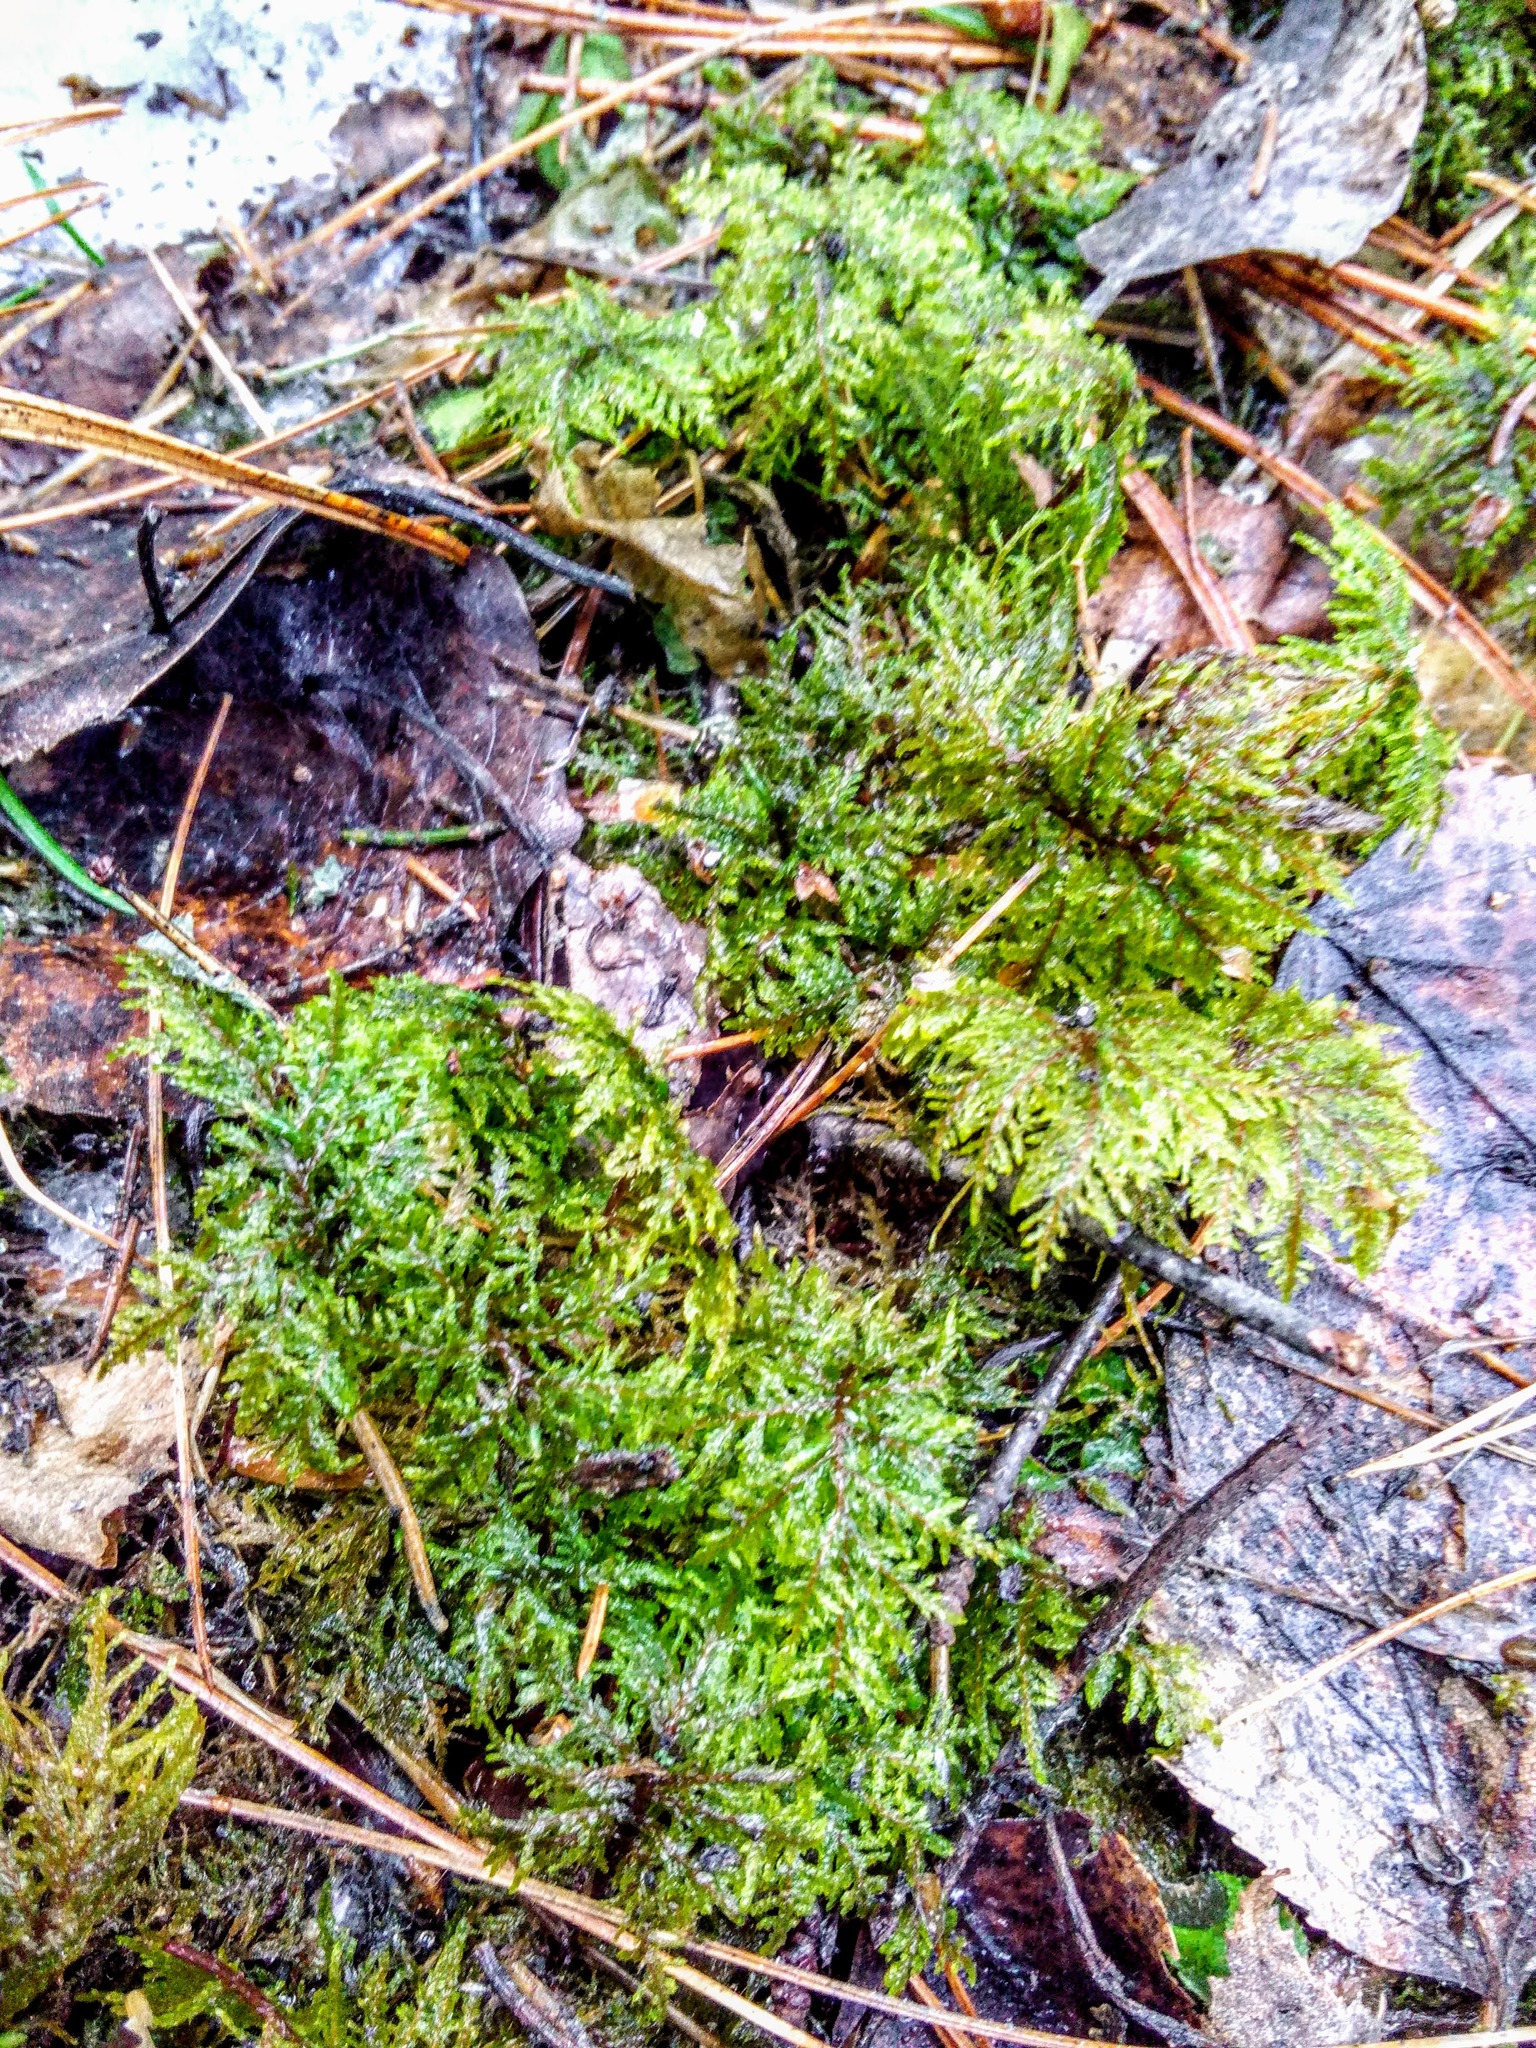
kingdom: Plantae
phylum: Bryophyta
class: Bryopsida
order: Hypnales
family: Hylocomiaceae
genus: Hylocomium
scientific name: Hylocomium splendens
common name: Stairstep moss
